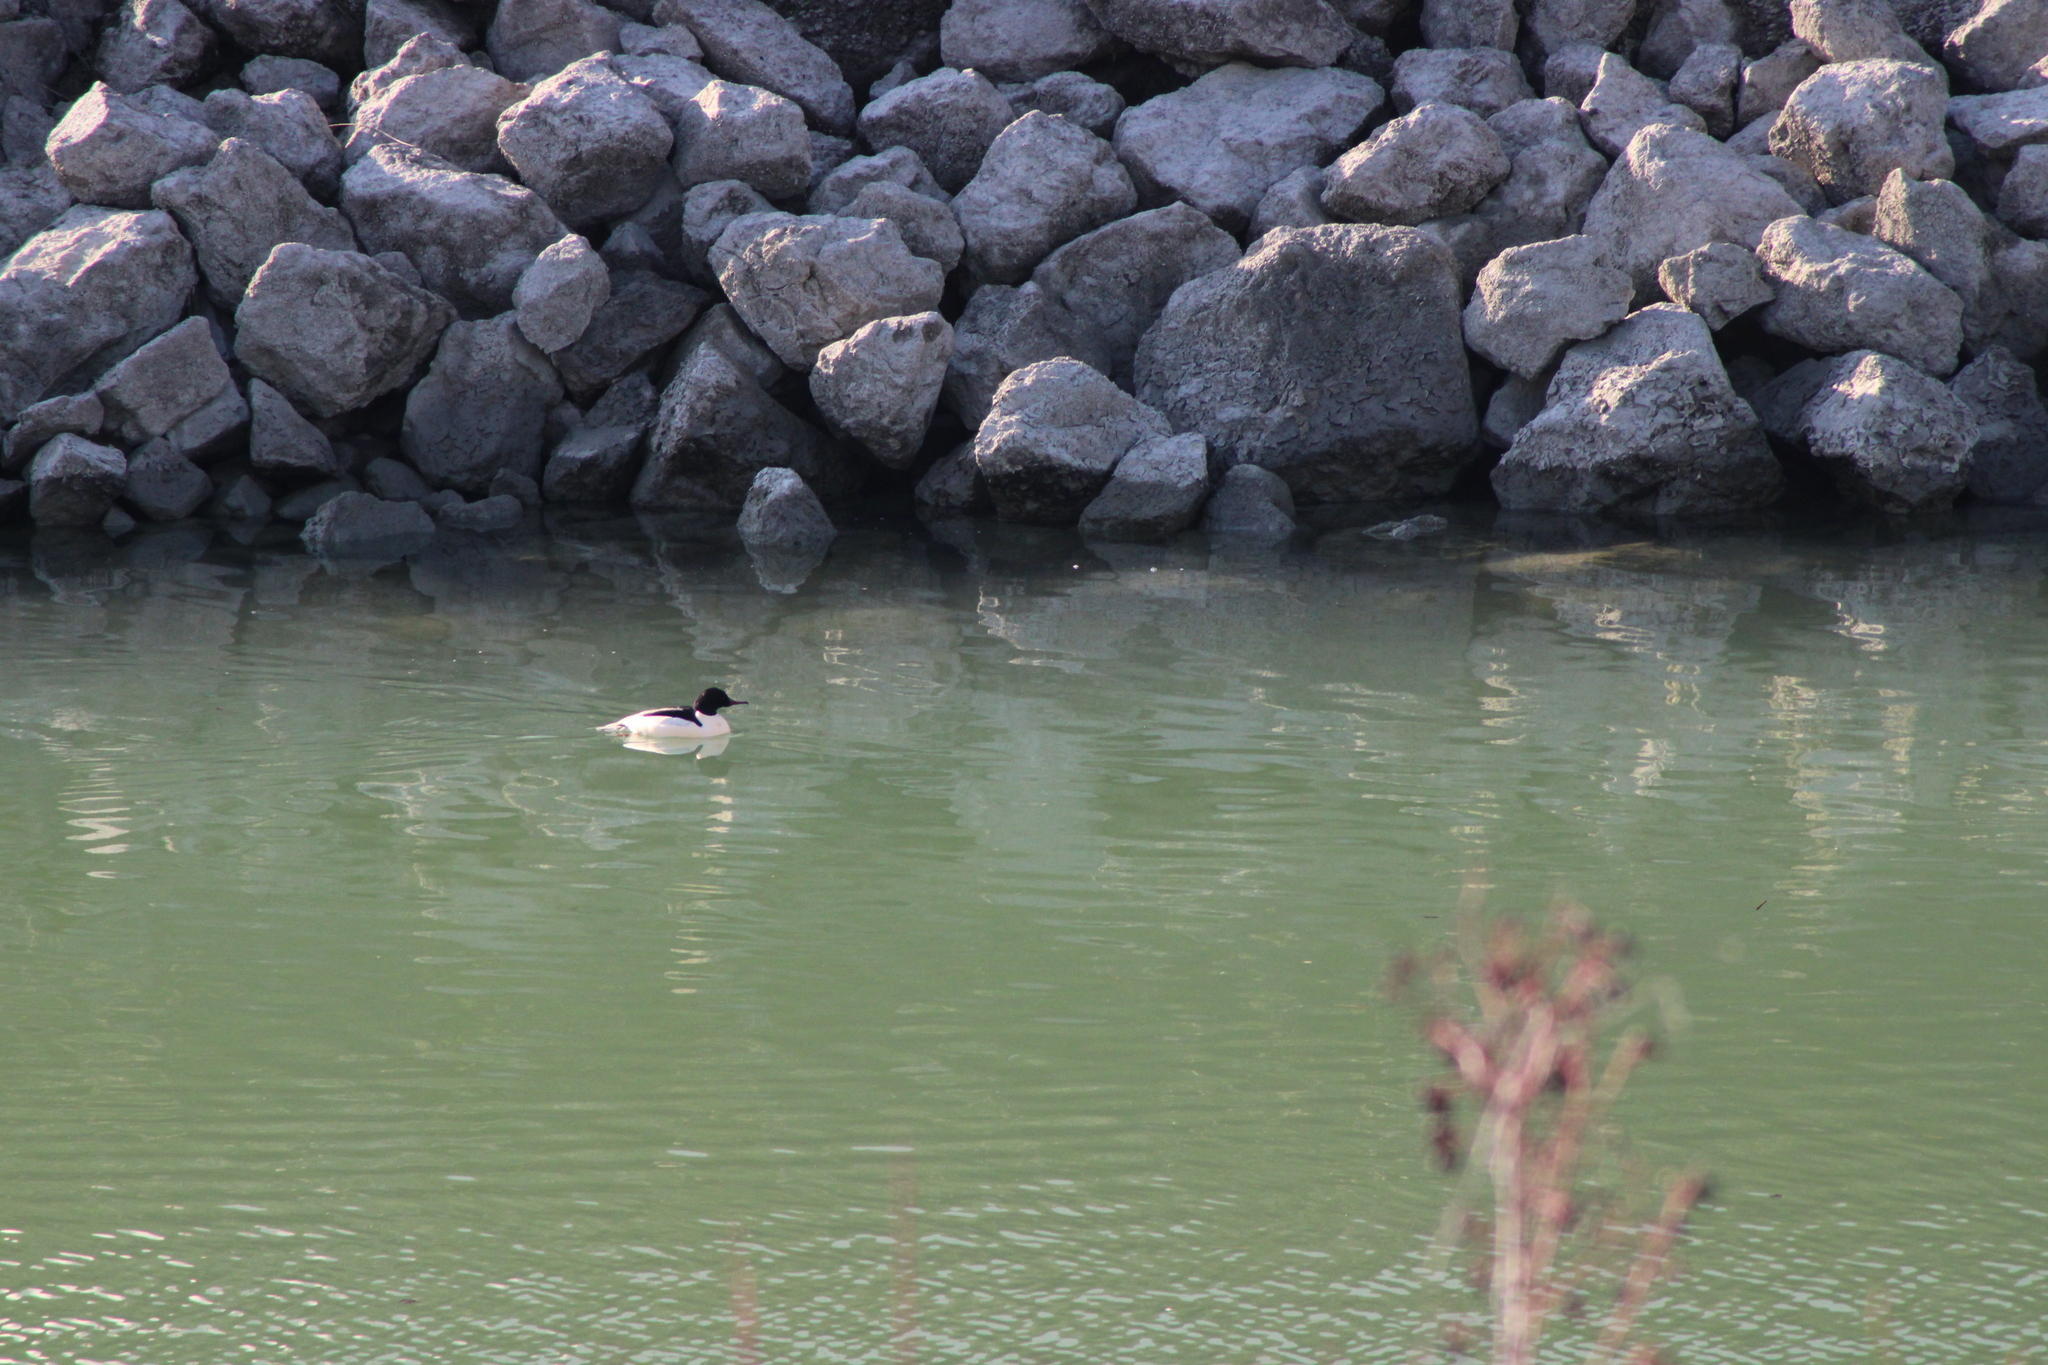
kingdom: Animalia
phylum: Chordata
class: Aves
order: Anseriformes
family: Anatidae
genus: Mergus
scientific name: Mergus merganser
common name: Common merganser
